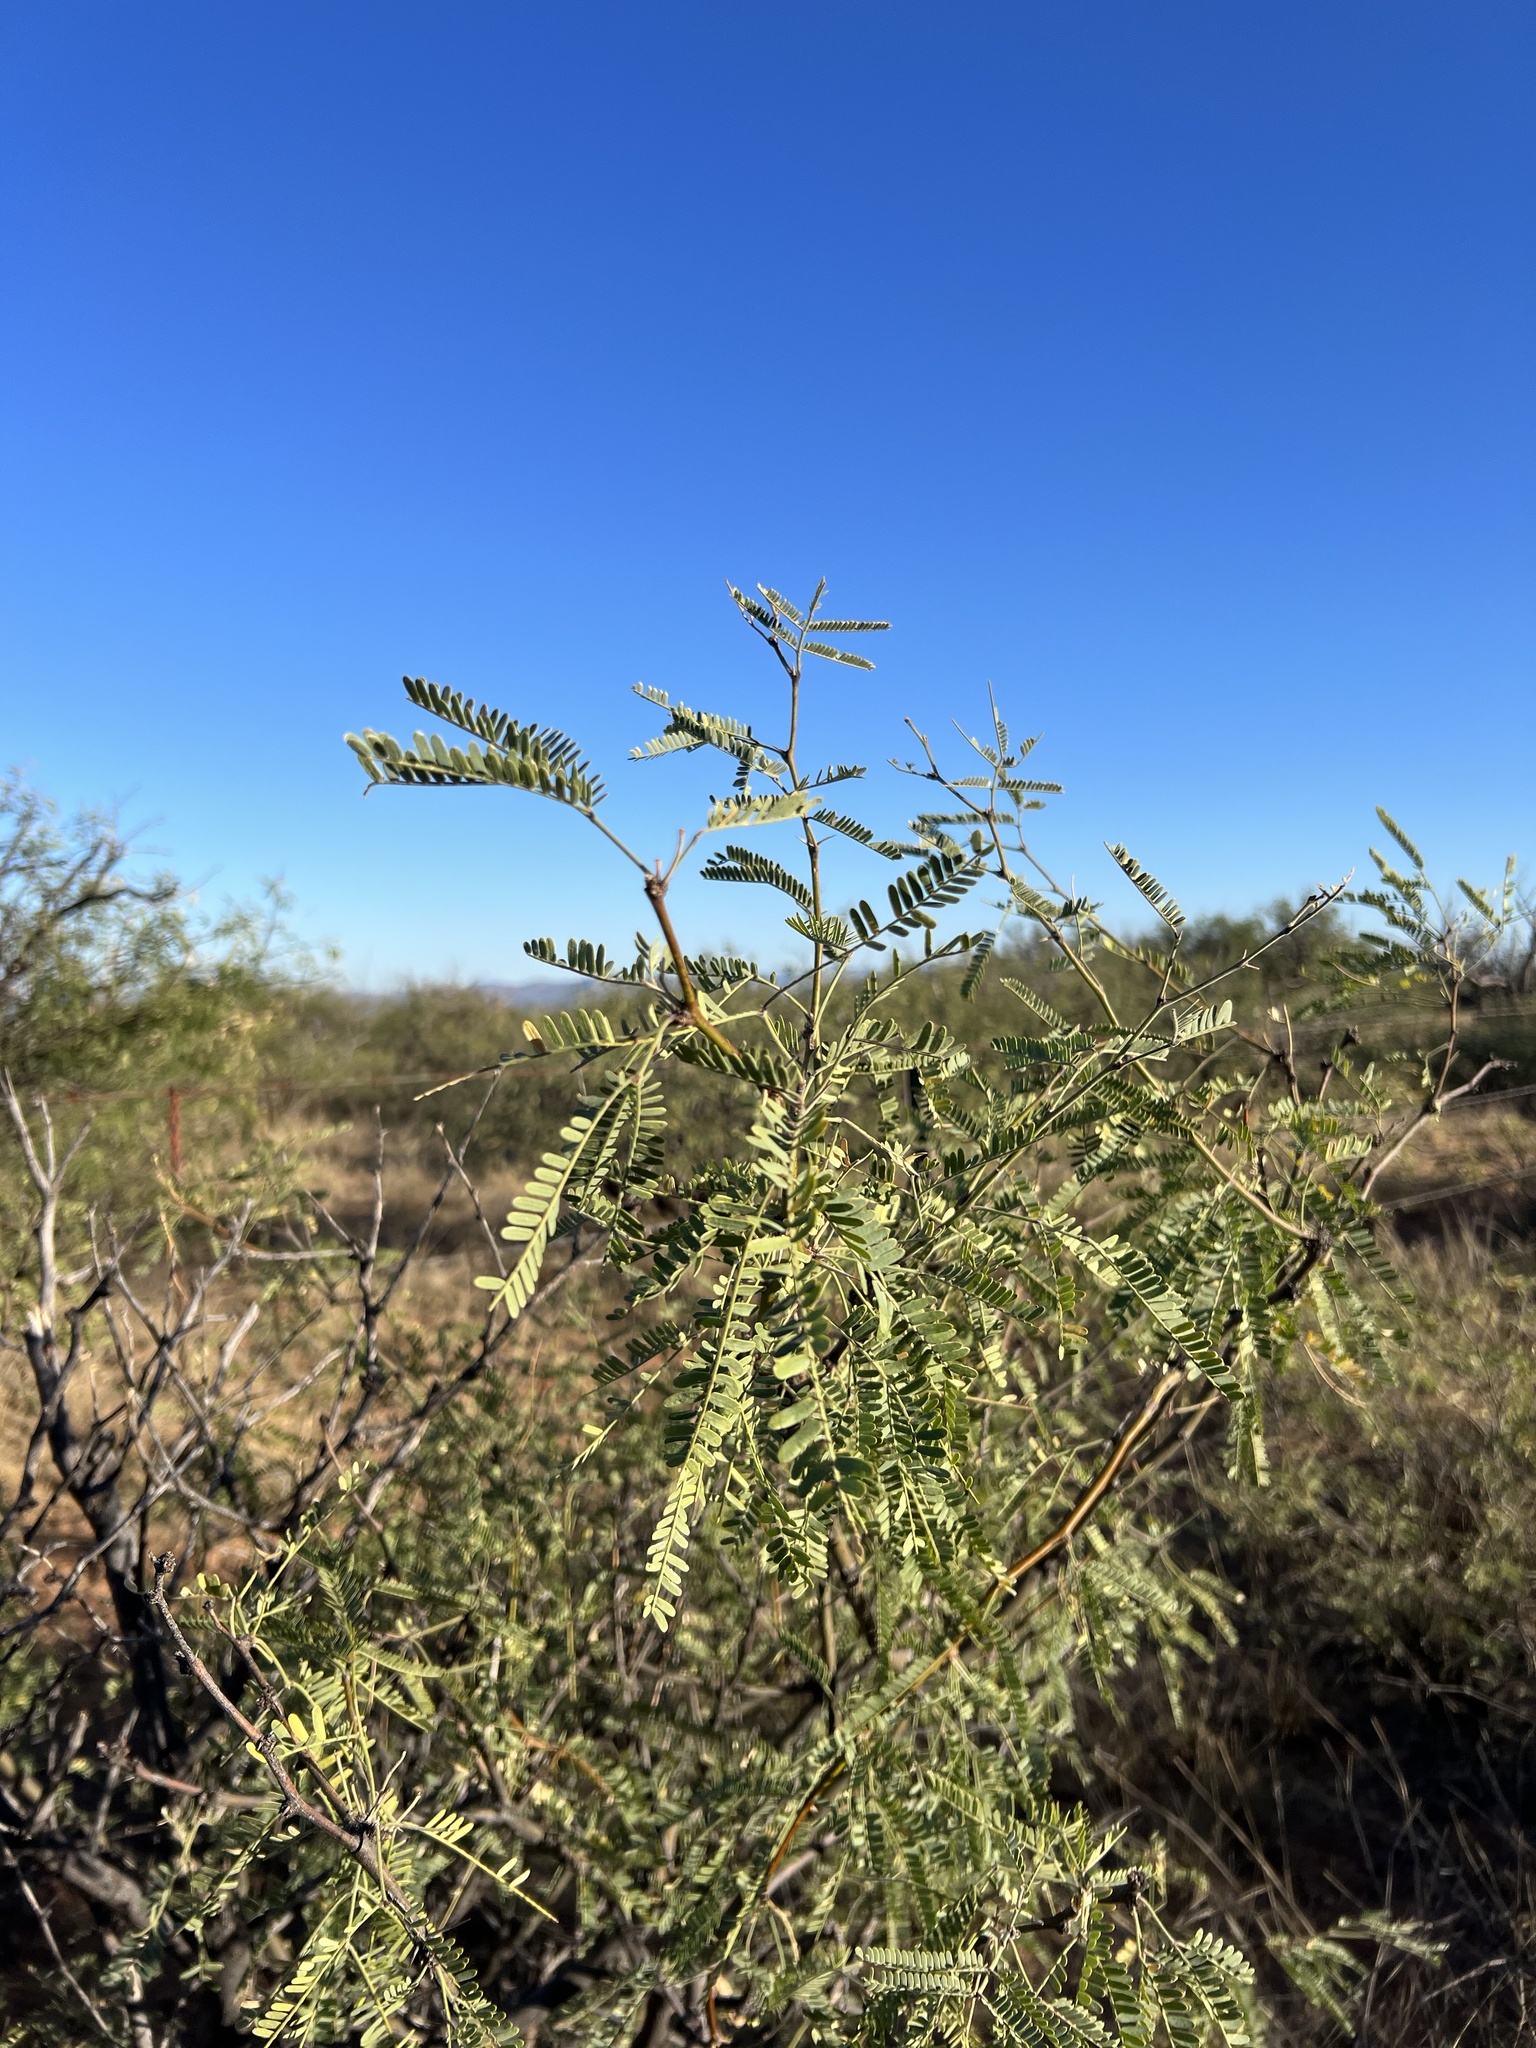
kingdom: Plantae
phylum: Tracheophyta
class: Magnoliopsida
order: Fabales
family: Fabaceae
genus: Prosopis
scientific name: Prosopis velutina
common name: Velvet mesquite
